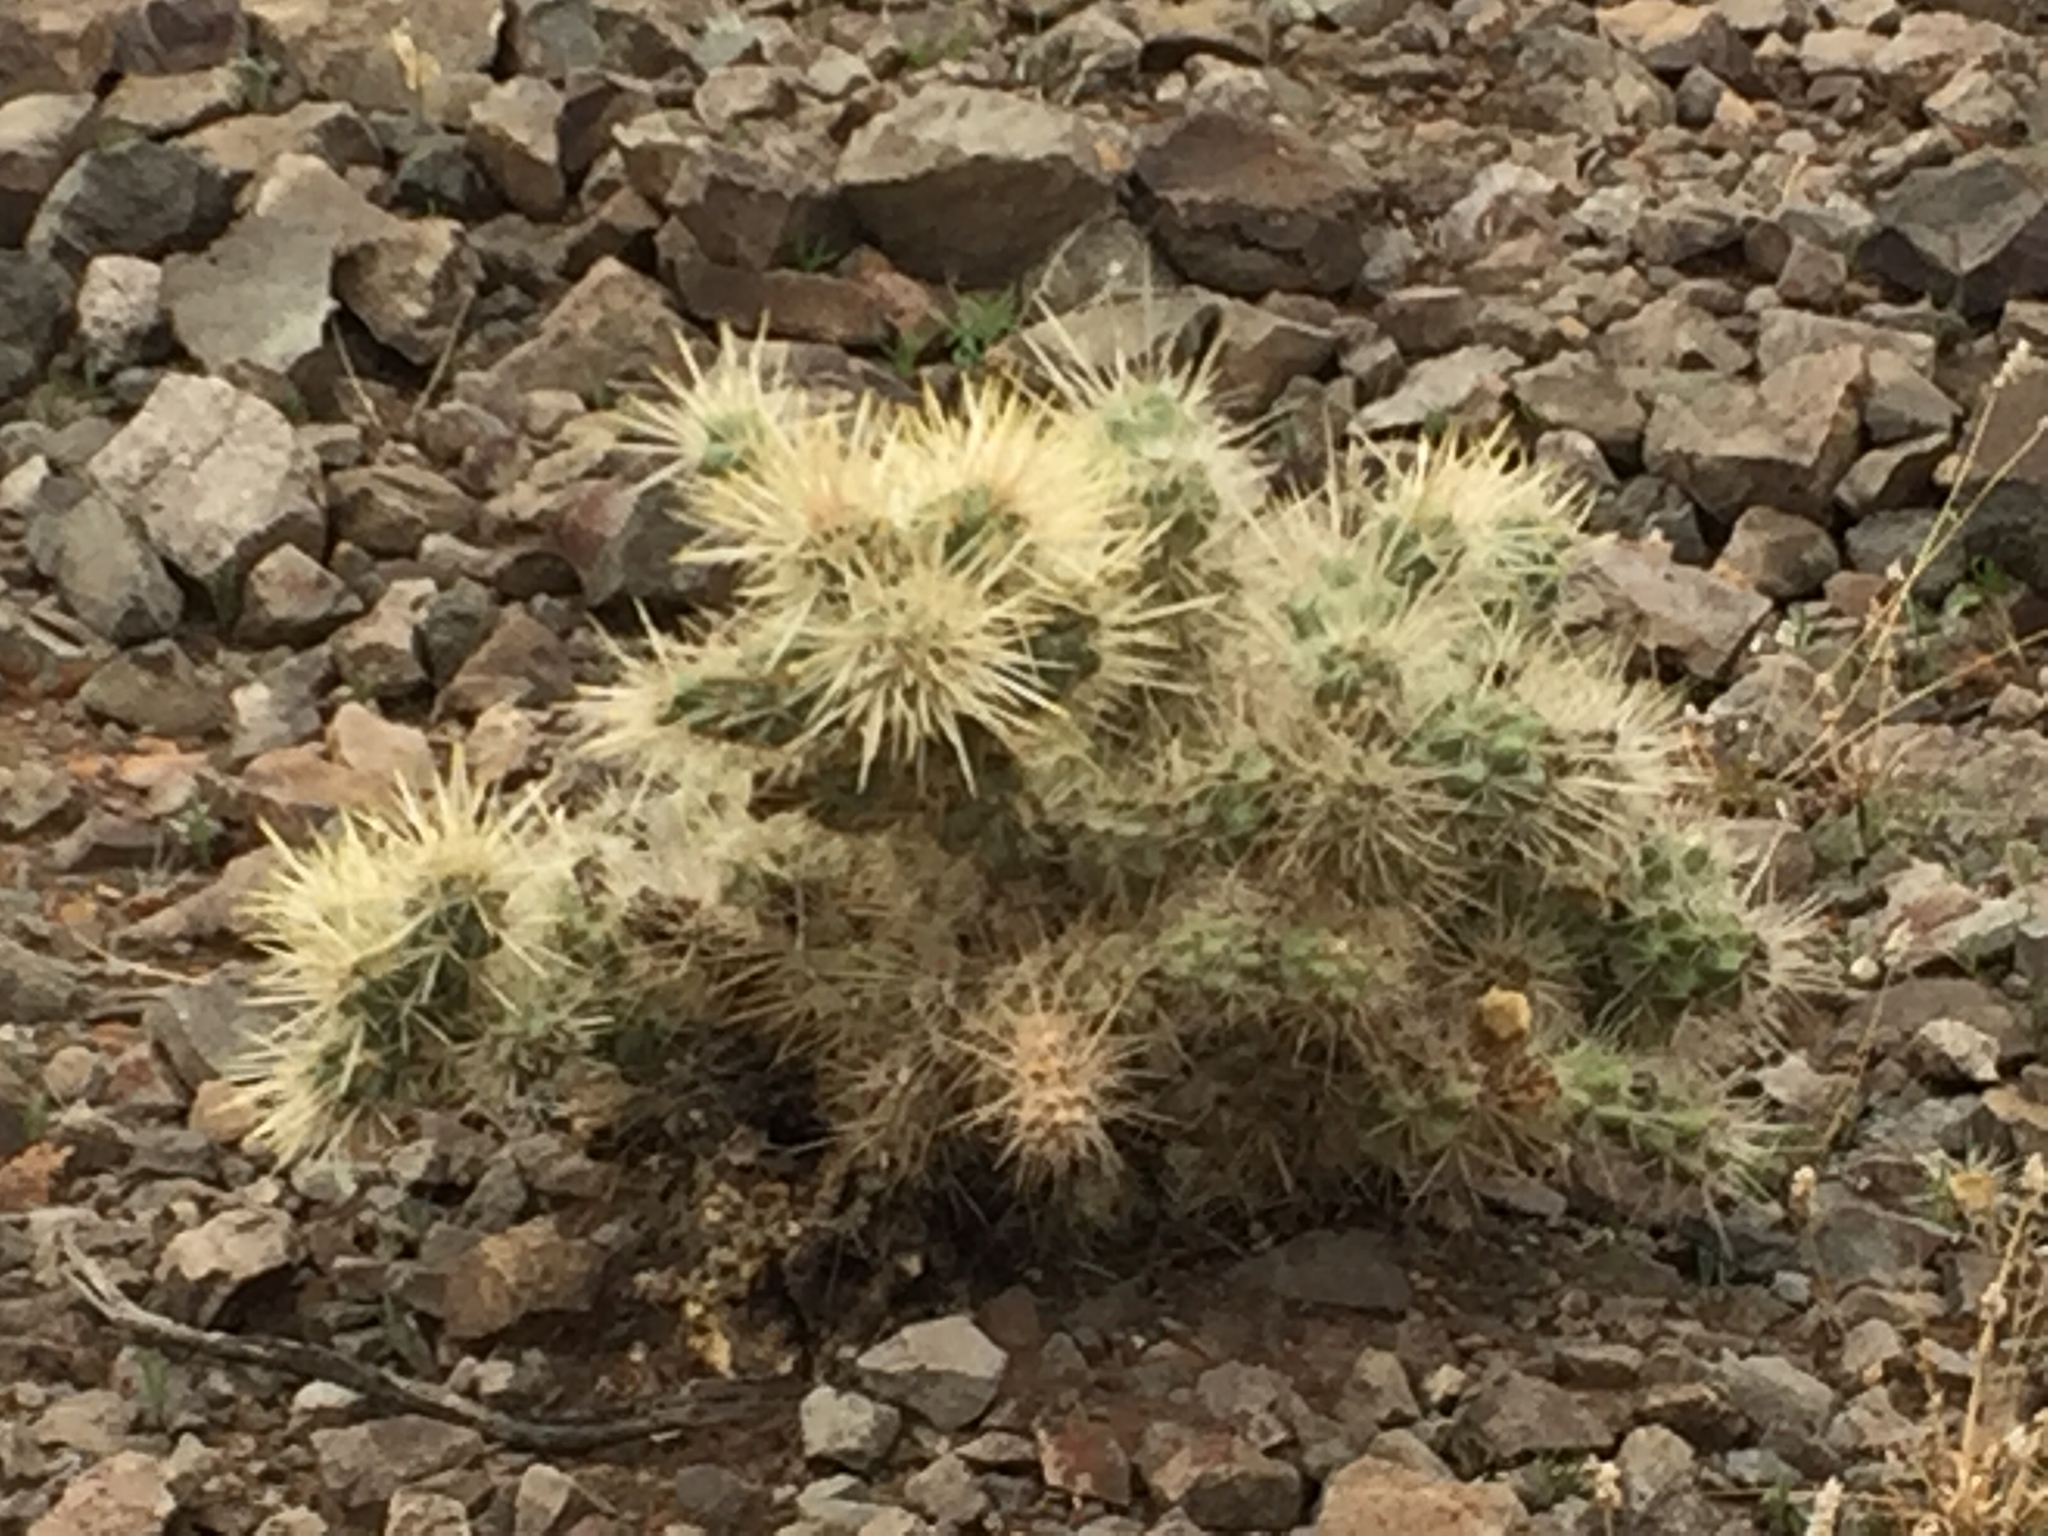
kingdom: Plantae
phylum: Tracheophyta
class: Magnoliopsida
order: Caryophyllales
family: Cactaceae
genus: Cylindropuntia
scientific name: Cylindropuntia echinocarpa
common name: Ground cholla
